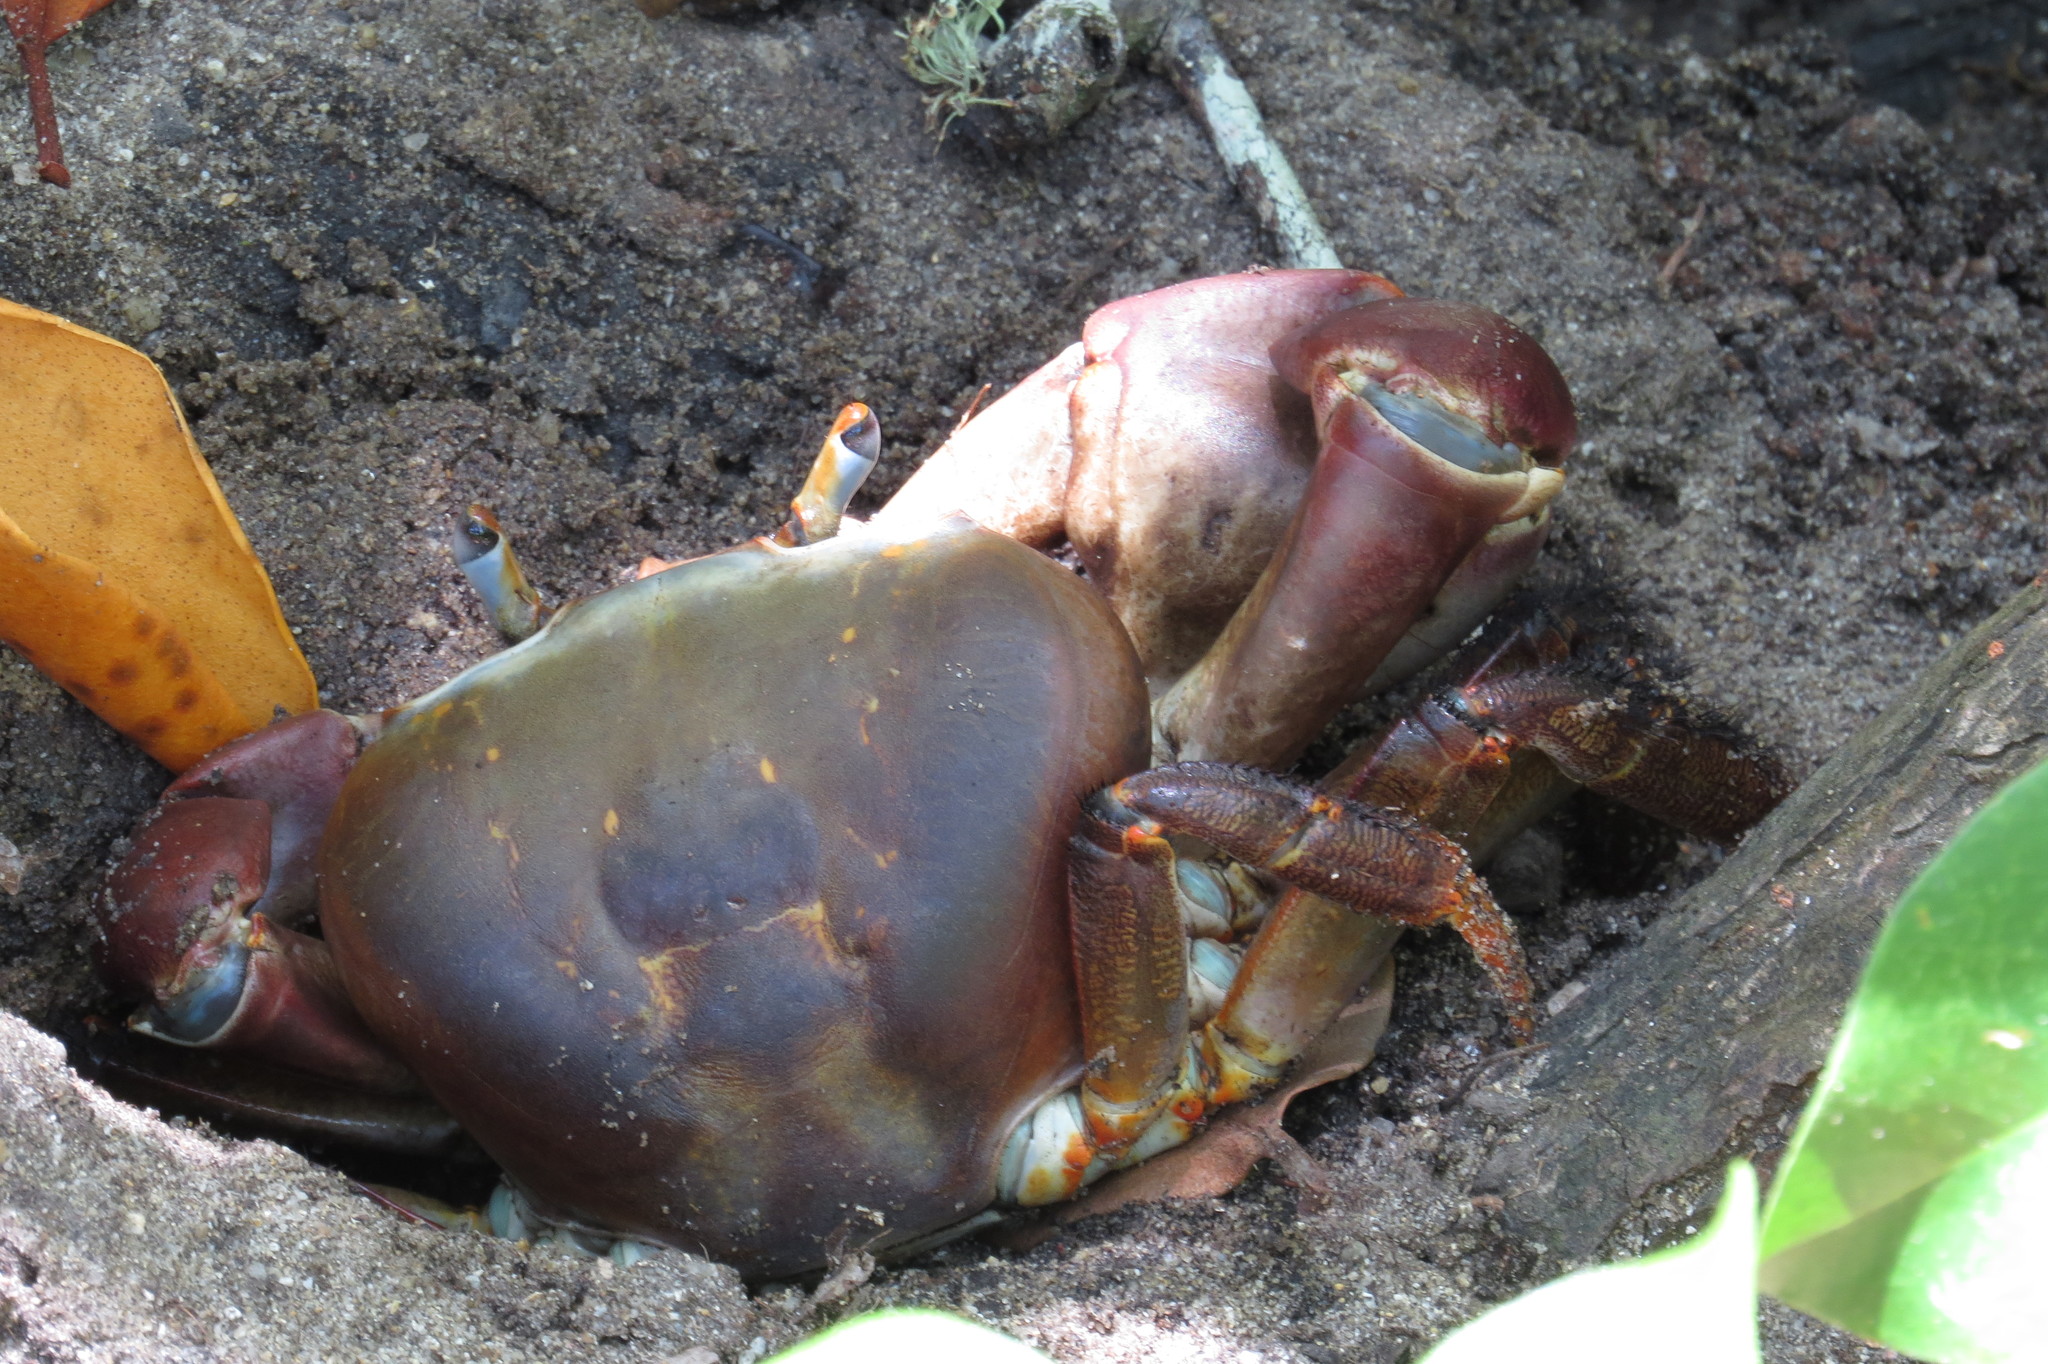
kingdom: Animalia
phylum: Arthropoda
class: Malacostraca
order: Decapoda
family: Gecarcinidae
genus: Cardisoma
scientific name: Cardisoma carnifex
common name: Brown land crab
